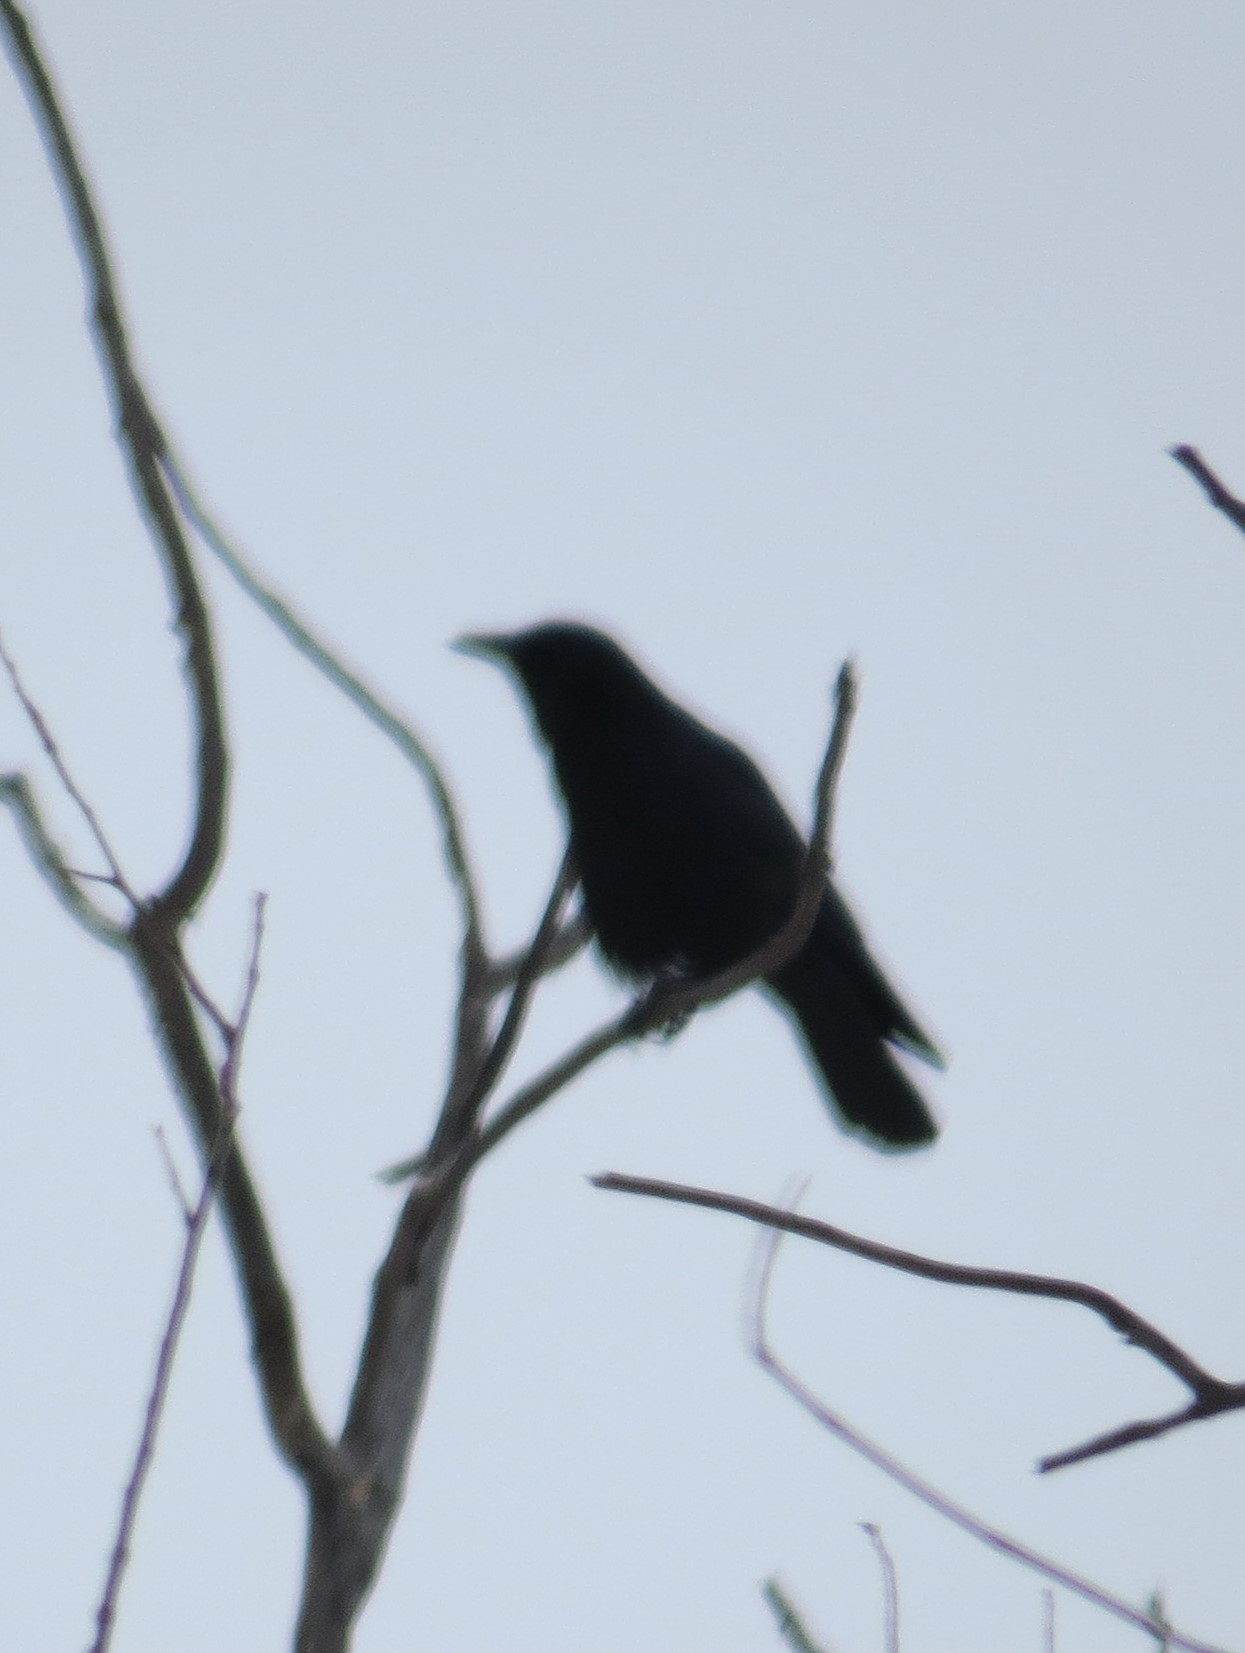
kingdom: Animalia
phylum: Chordata
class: Aves
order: Passeriformes
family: Corvidae
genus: Corvus
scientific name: Corvus brachyrhynchos
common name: American crow
